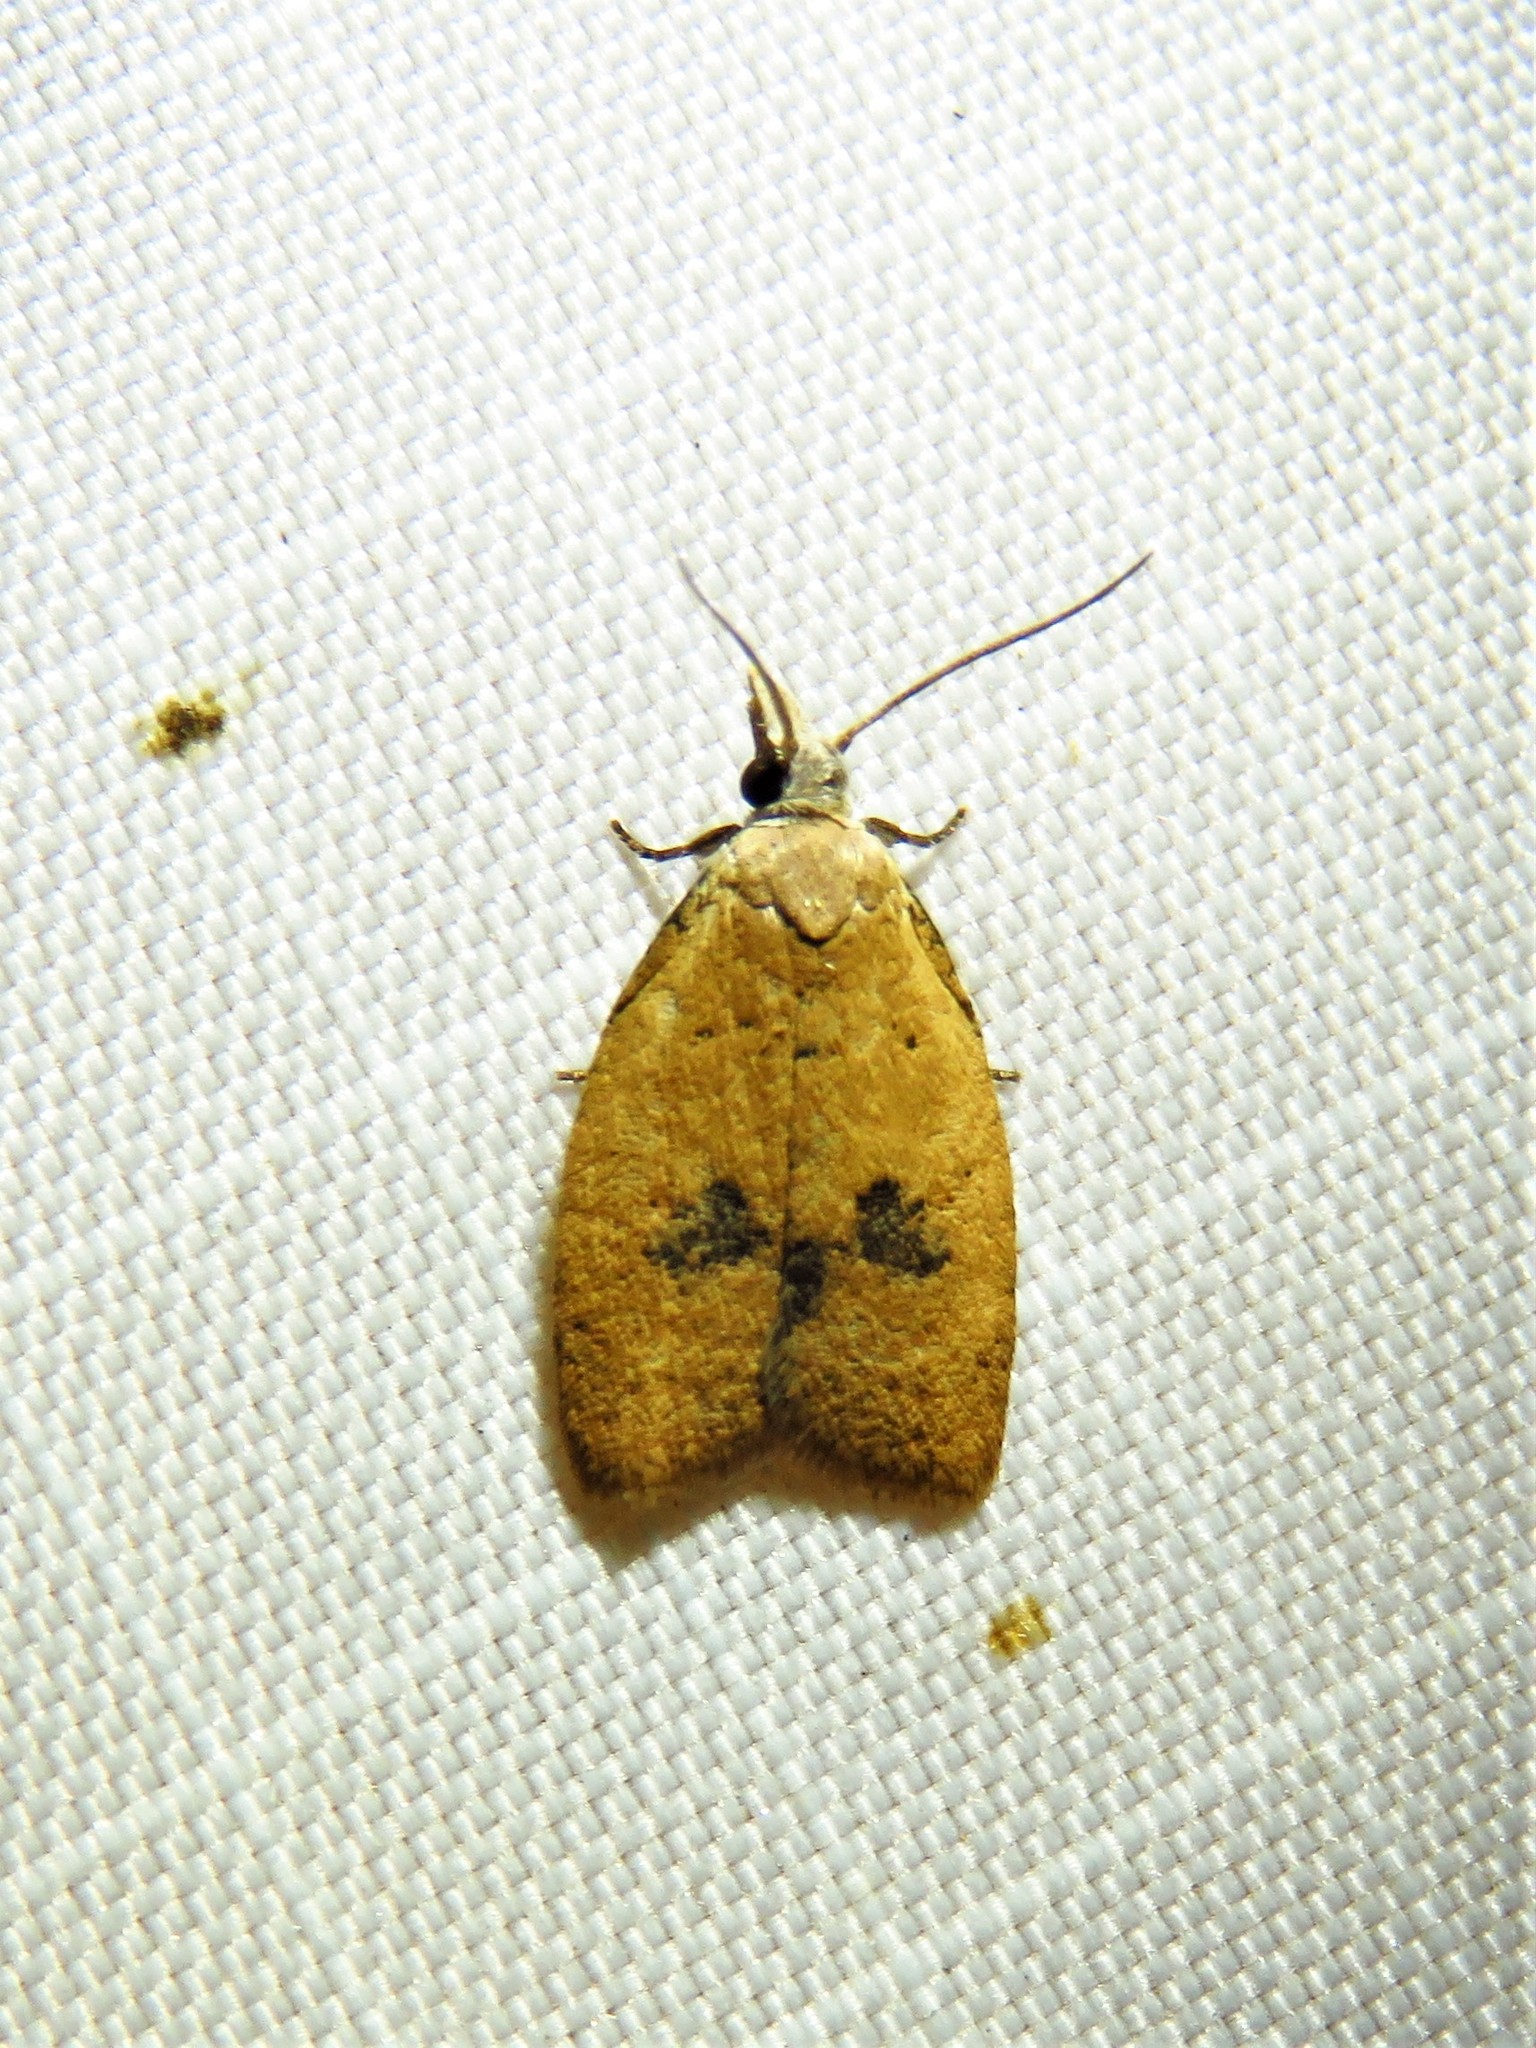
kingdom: Animalia
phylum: Arthropoda
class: Insecta
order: Lepidoptera
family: Tortricidae
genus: Sparganothoides
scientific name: Sparganothoides lentiginosana
